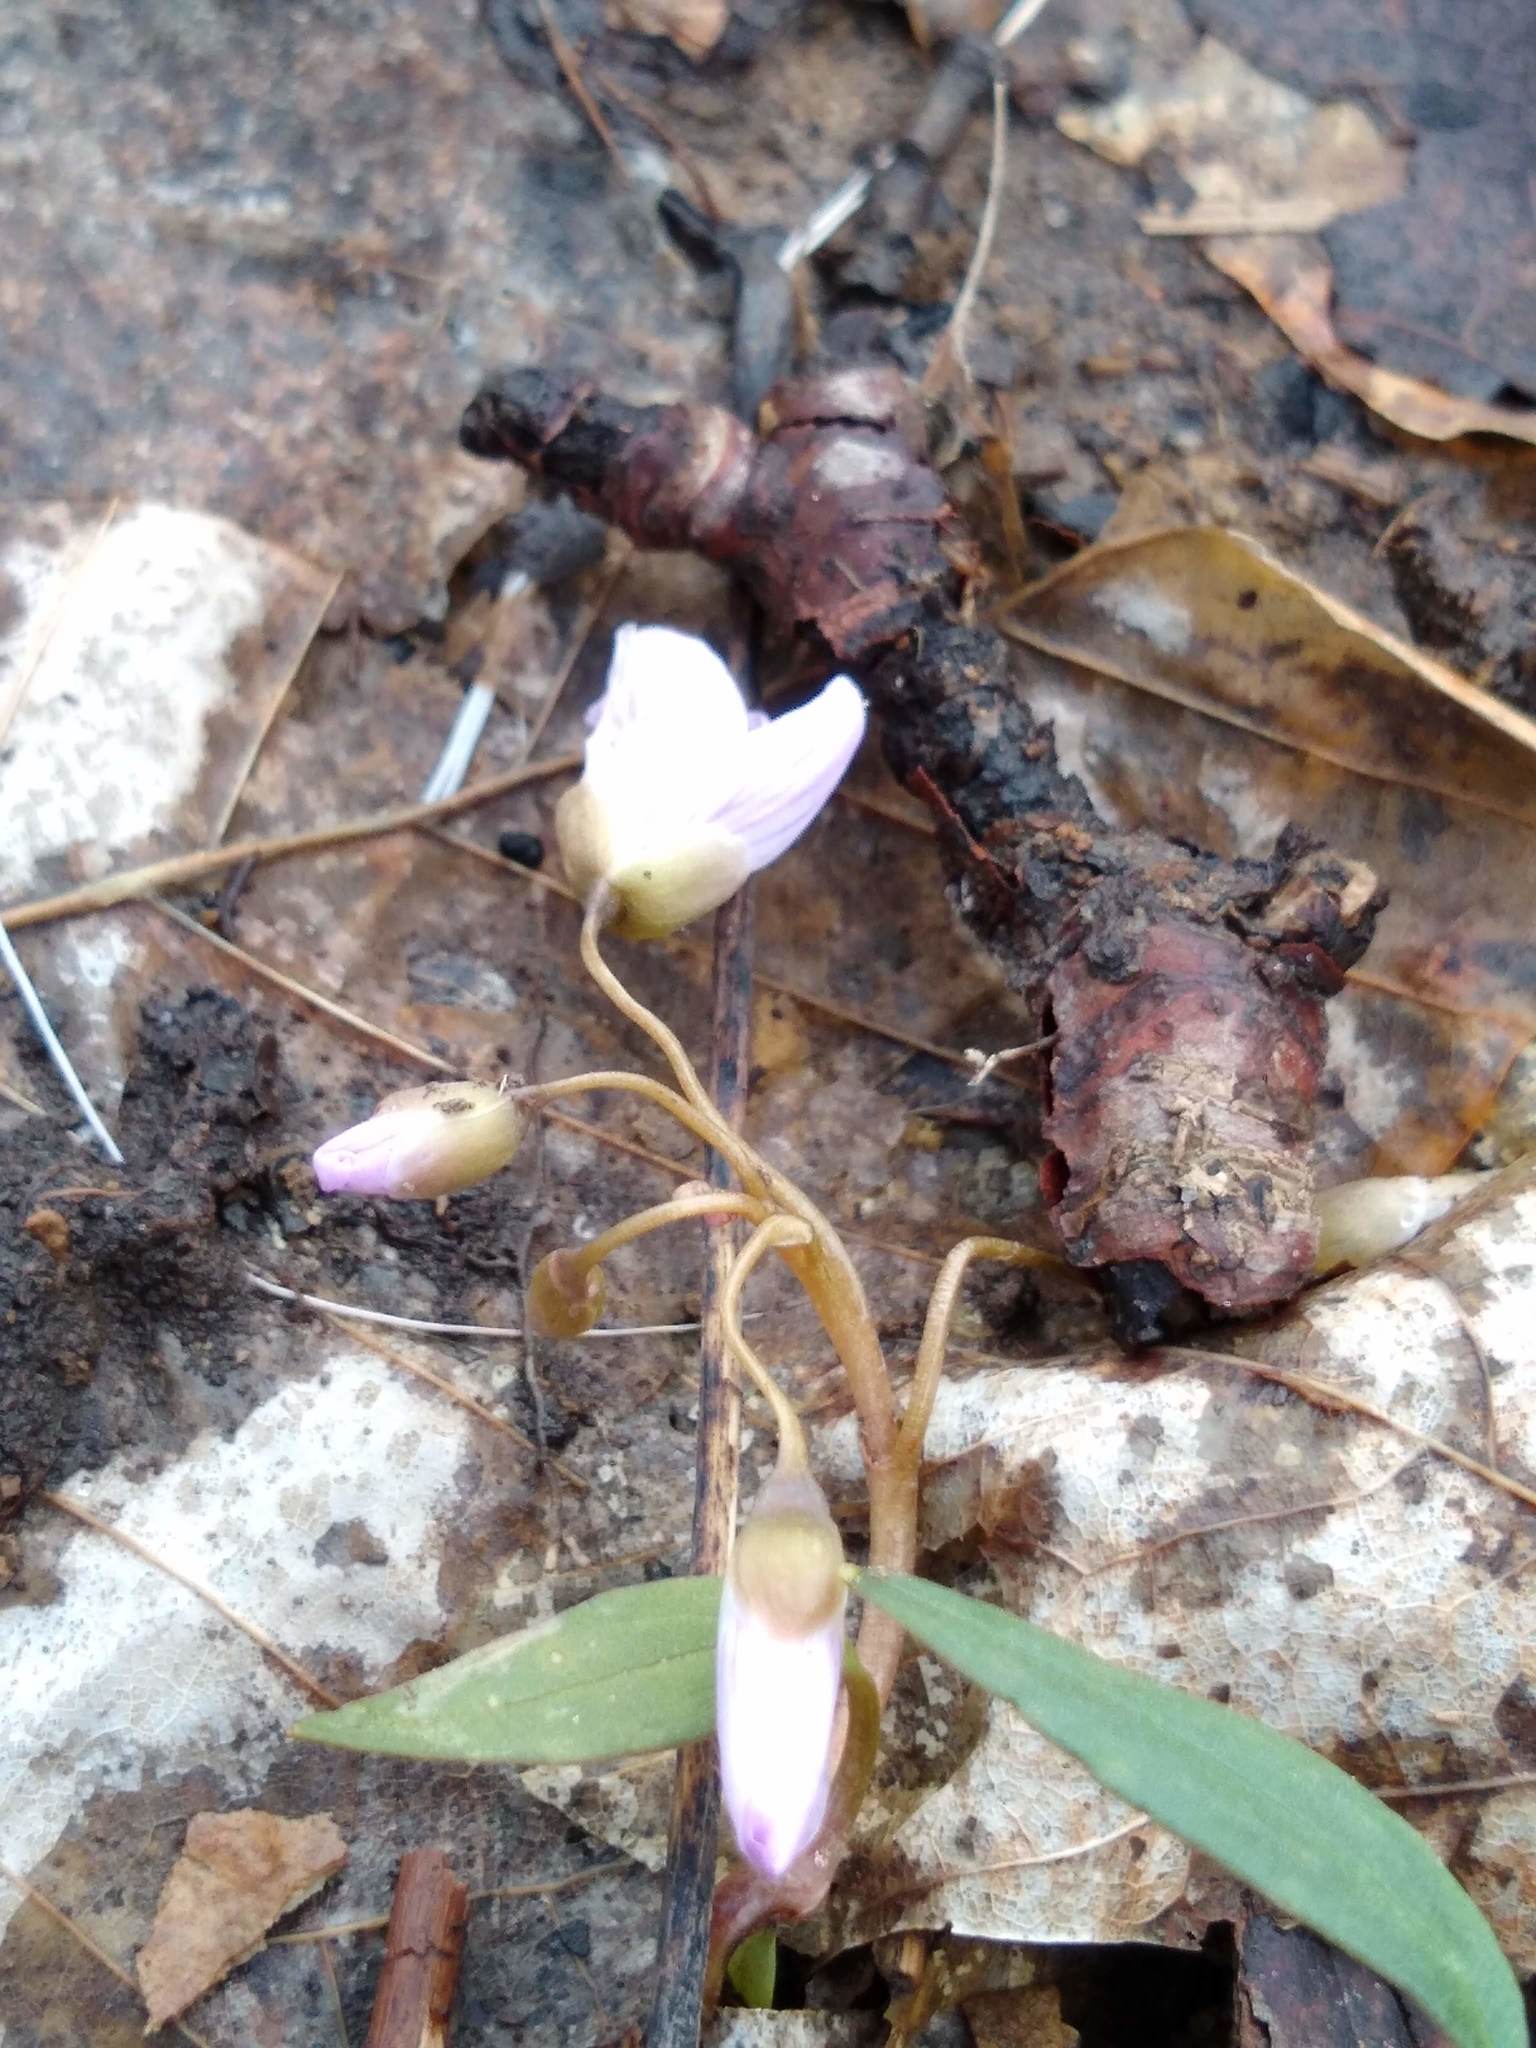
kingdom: Plantae
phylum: Tracheophyta
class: Magnoliopsida
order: Caryophyllales
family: Montiaceae
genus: Claytonia
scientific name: Claytonia caroliniana
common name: Carolina spring beauty
